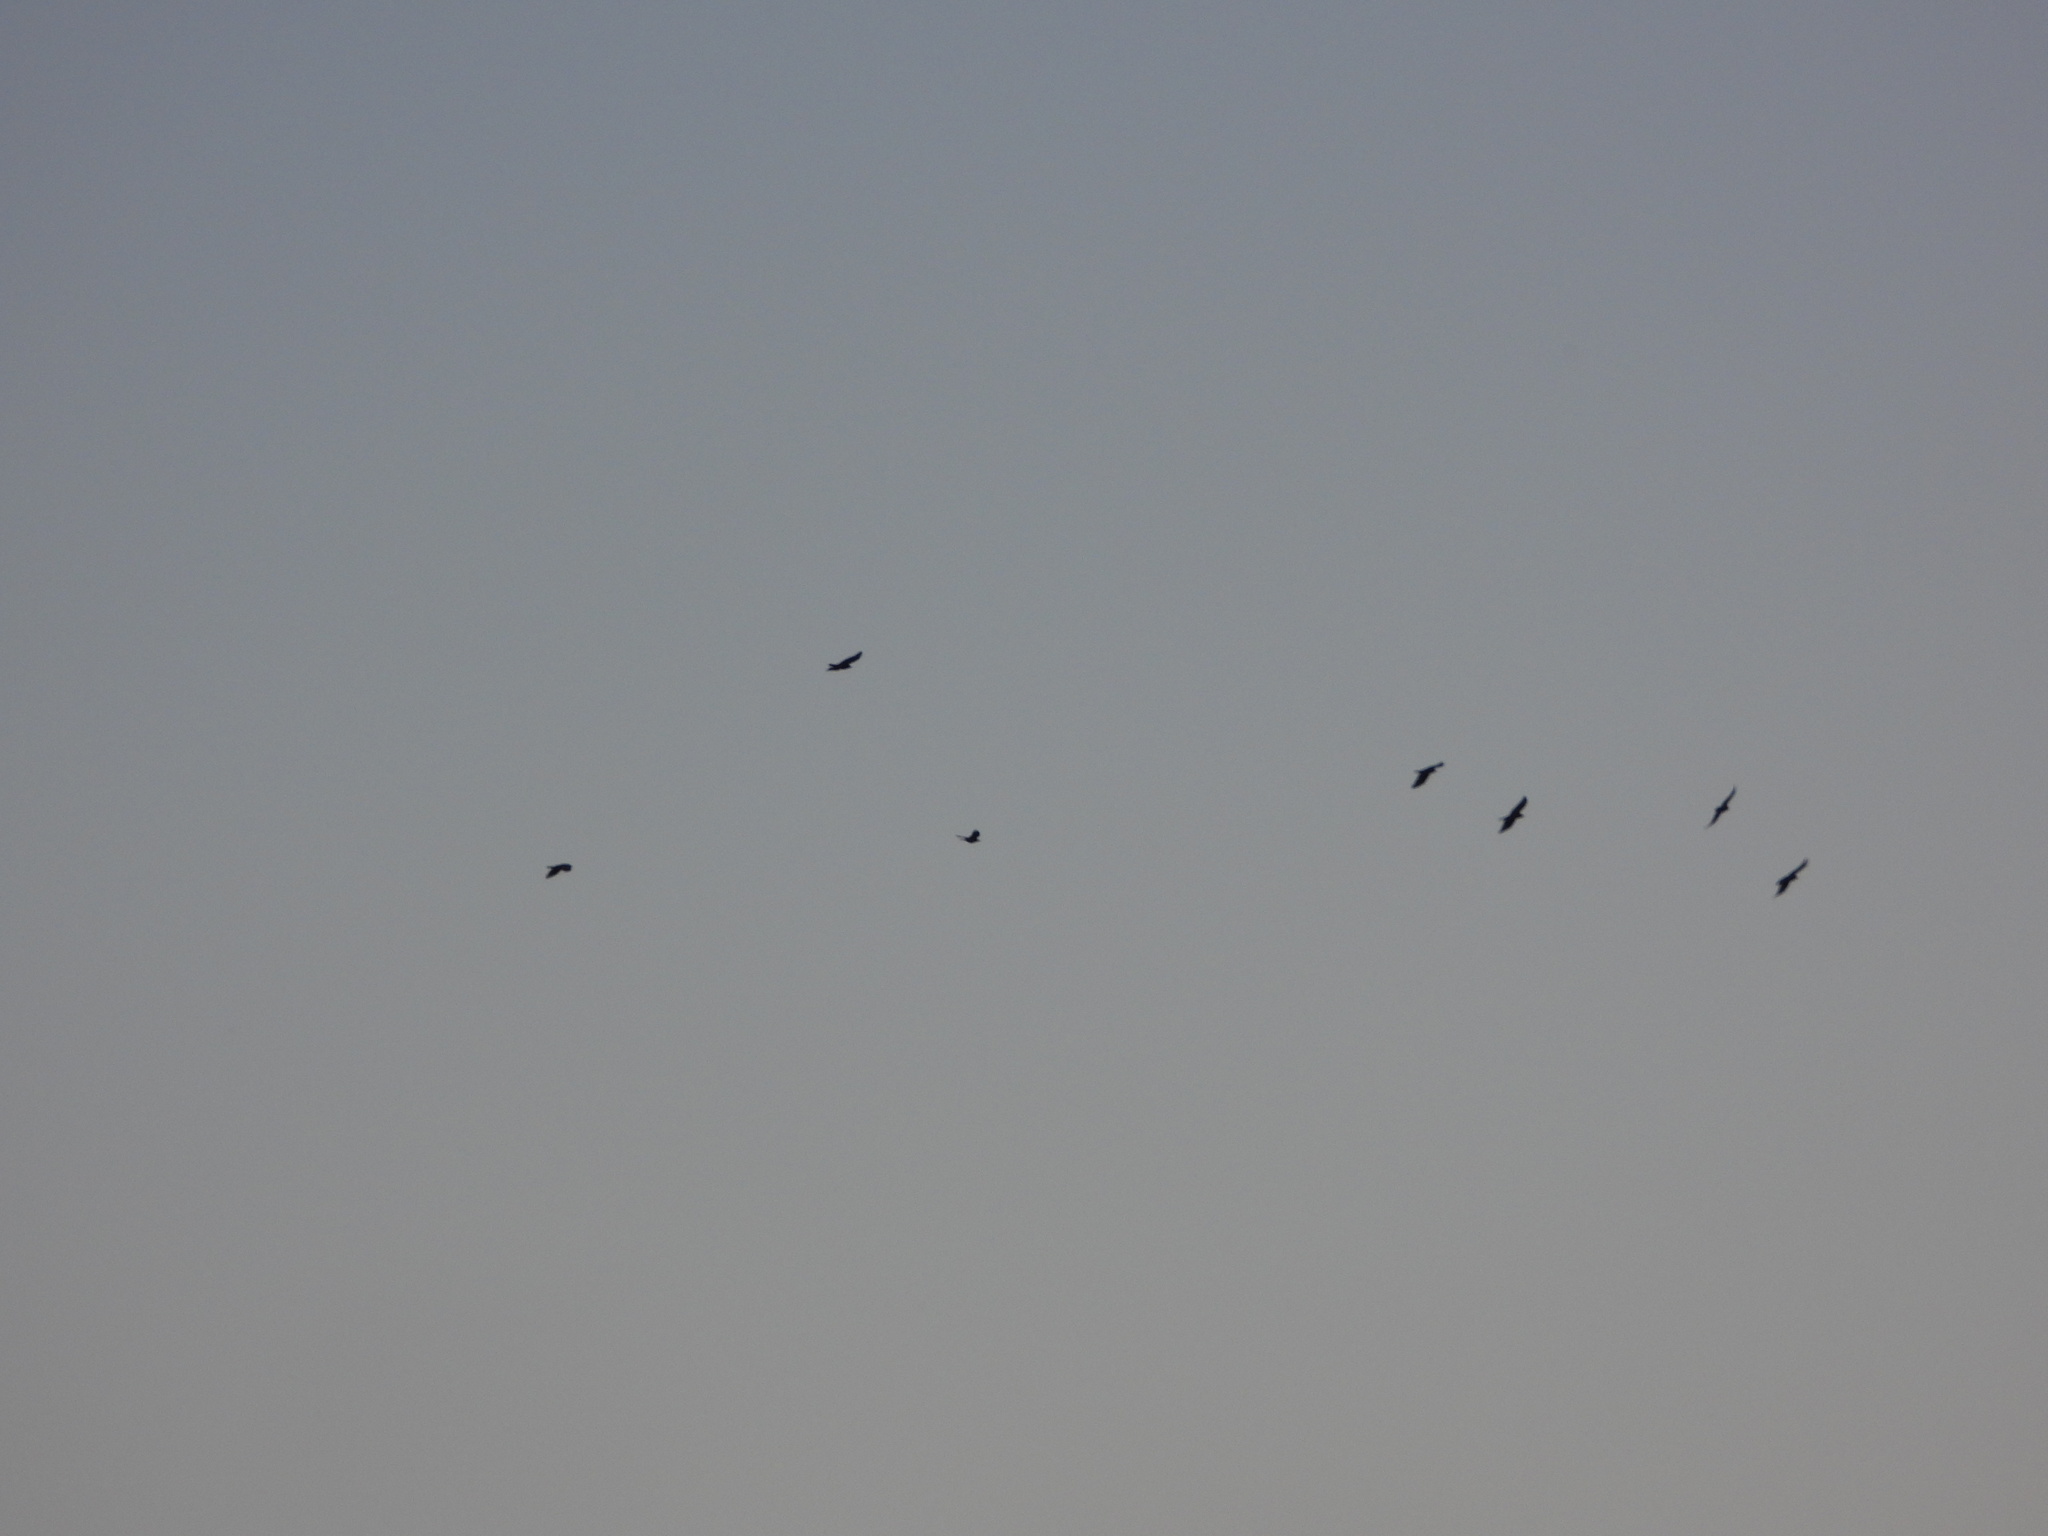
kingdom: Animalia
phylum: Chordata
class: Aves
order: Passeriformes
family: Corvidae
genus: Corvus
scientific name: Corvus brachyrhynchos
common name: American crow
